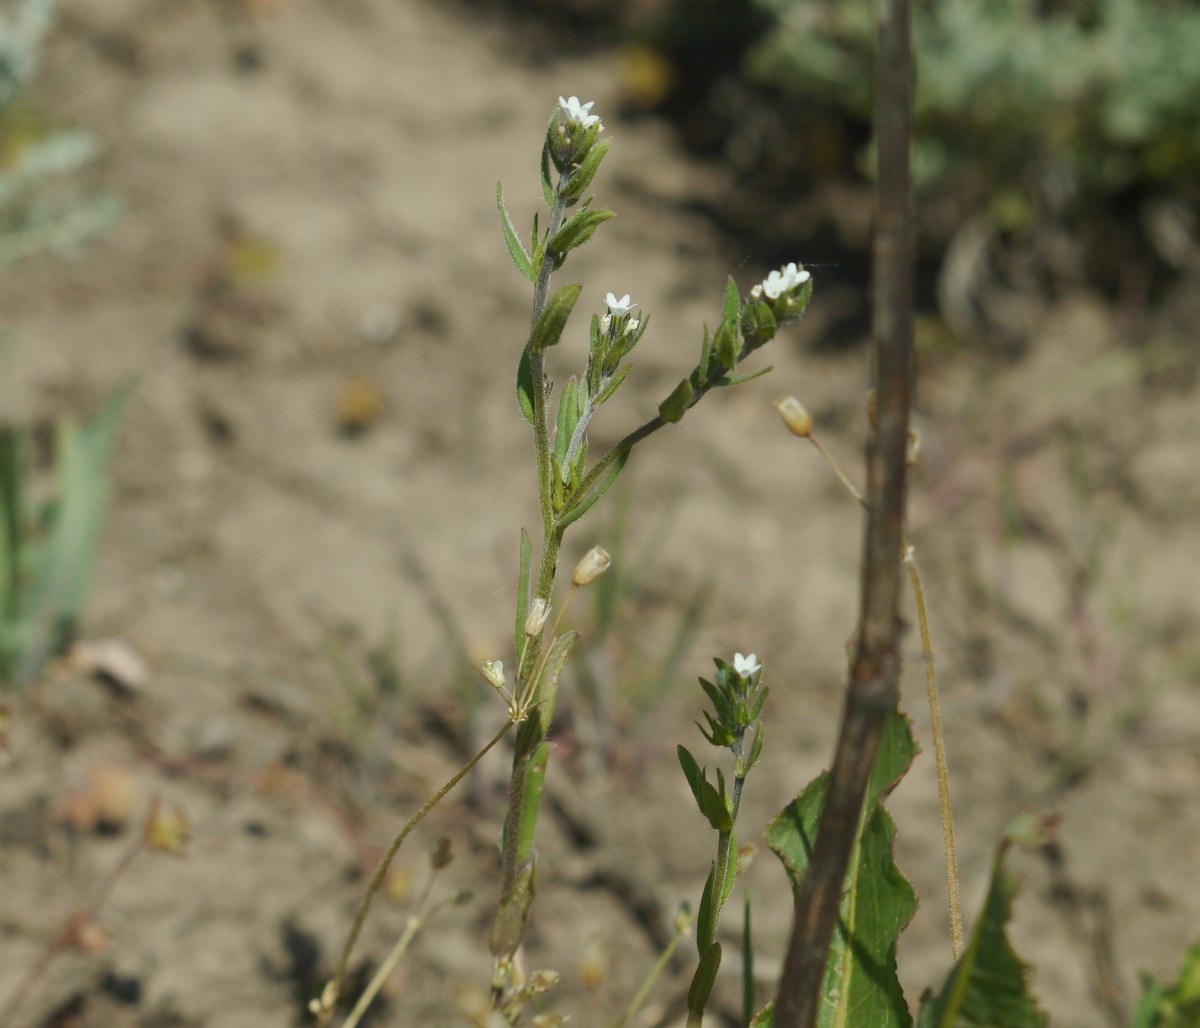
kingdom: Plantae
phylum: Tracheophyta
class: Magnoliopsida
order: Boraginales
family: Boraginaceae
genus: Buglossoides
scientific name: Buglossoides arvensis
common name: Corn gromwell
